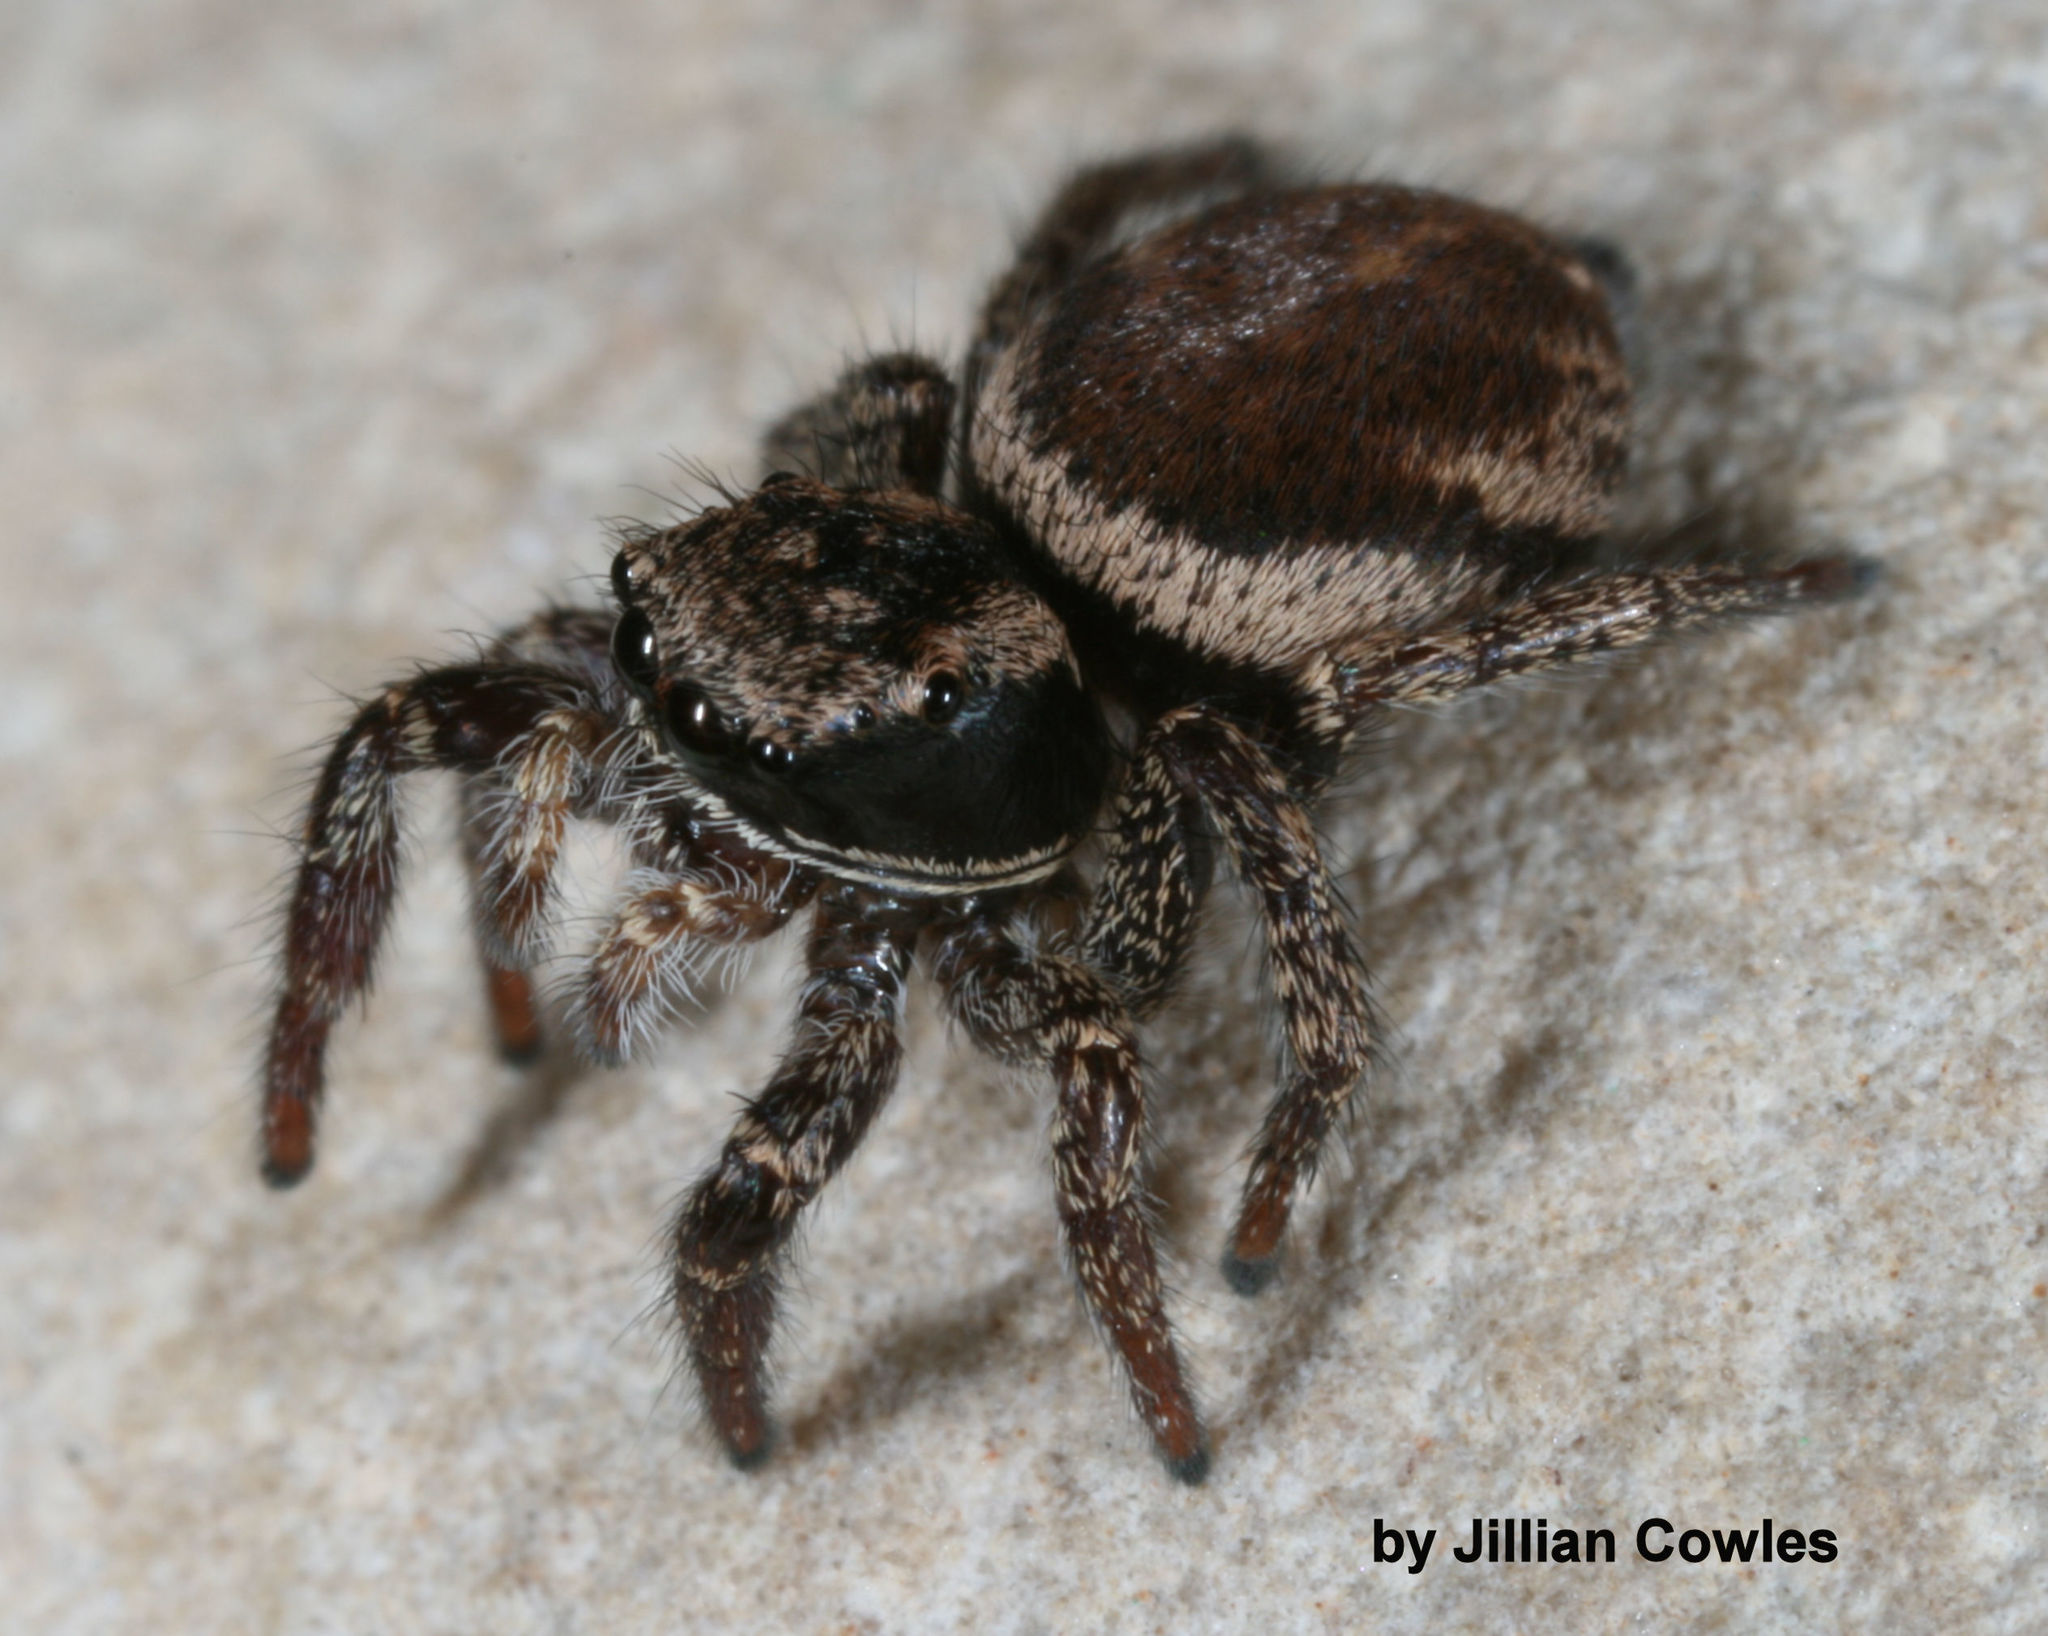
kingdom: Animalia
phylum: Arthropoda
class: Arachnida
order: Araneae
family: Salticidae
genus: Habronattus
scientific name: Habronattus oregonensis
